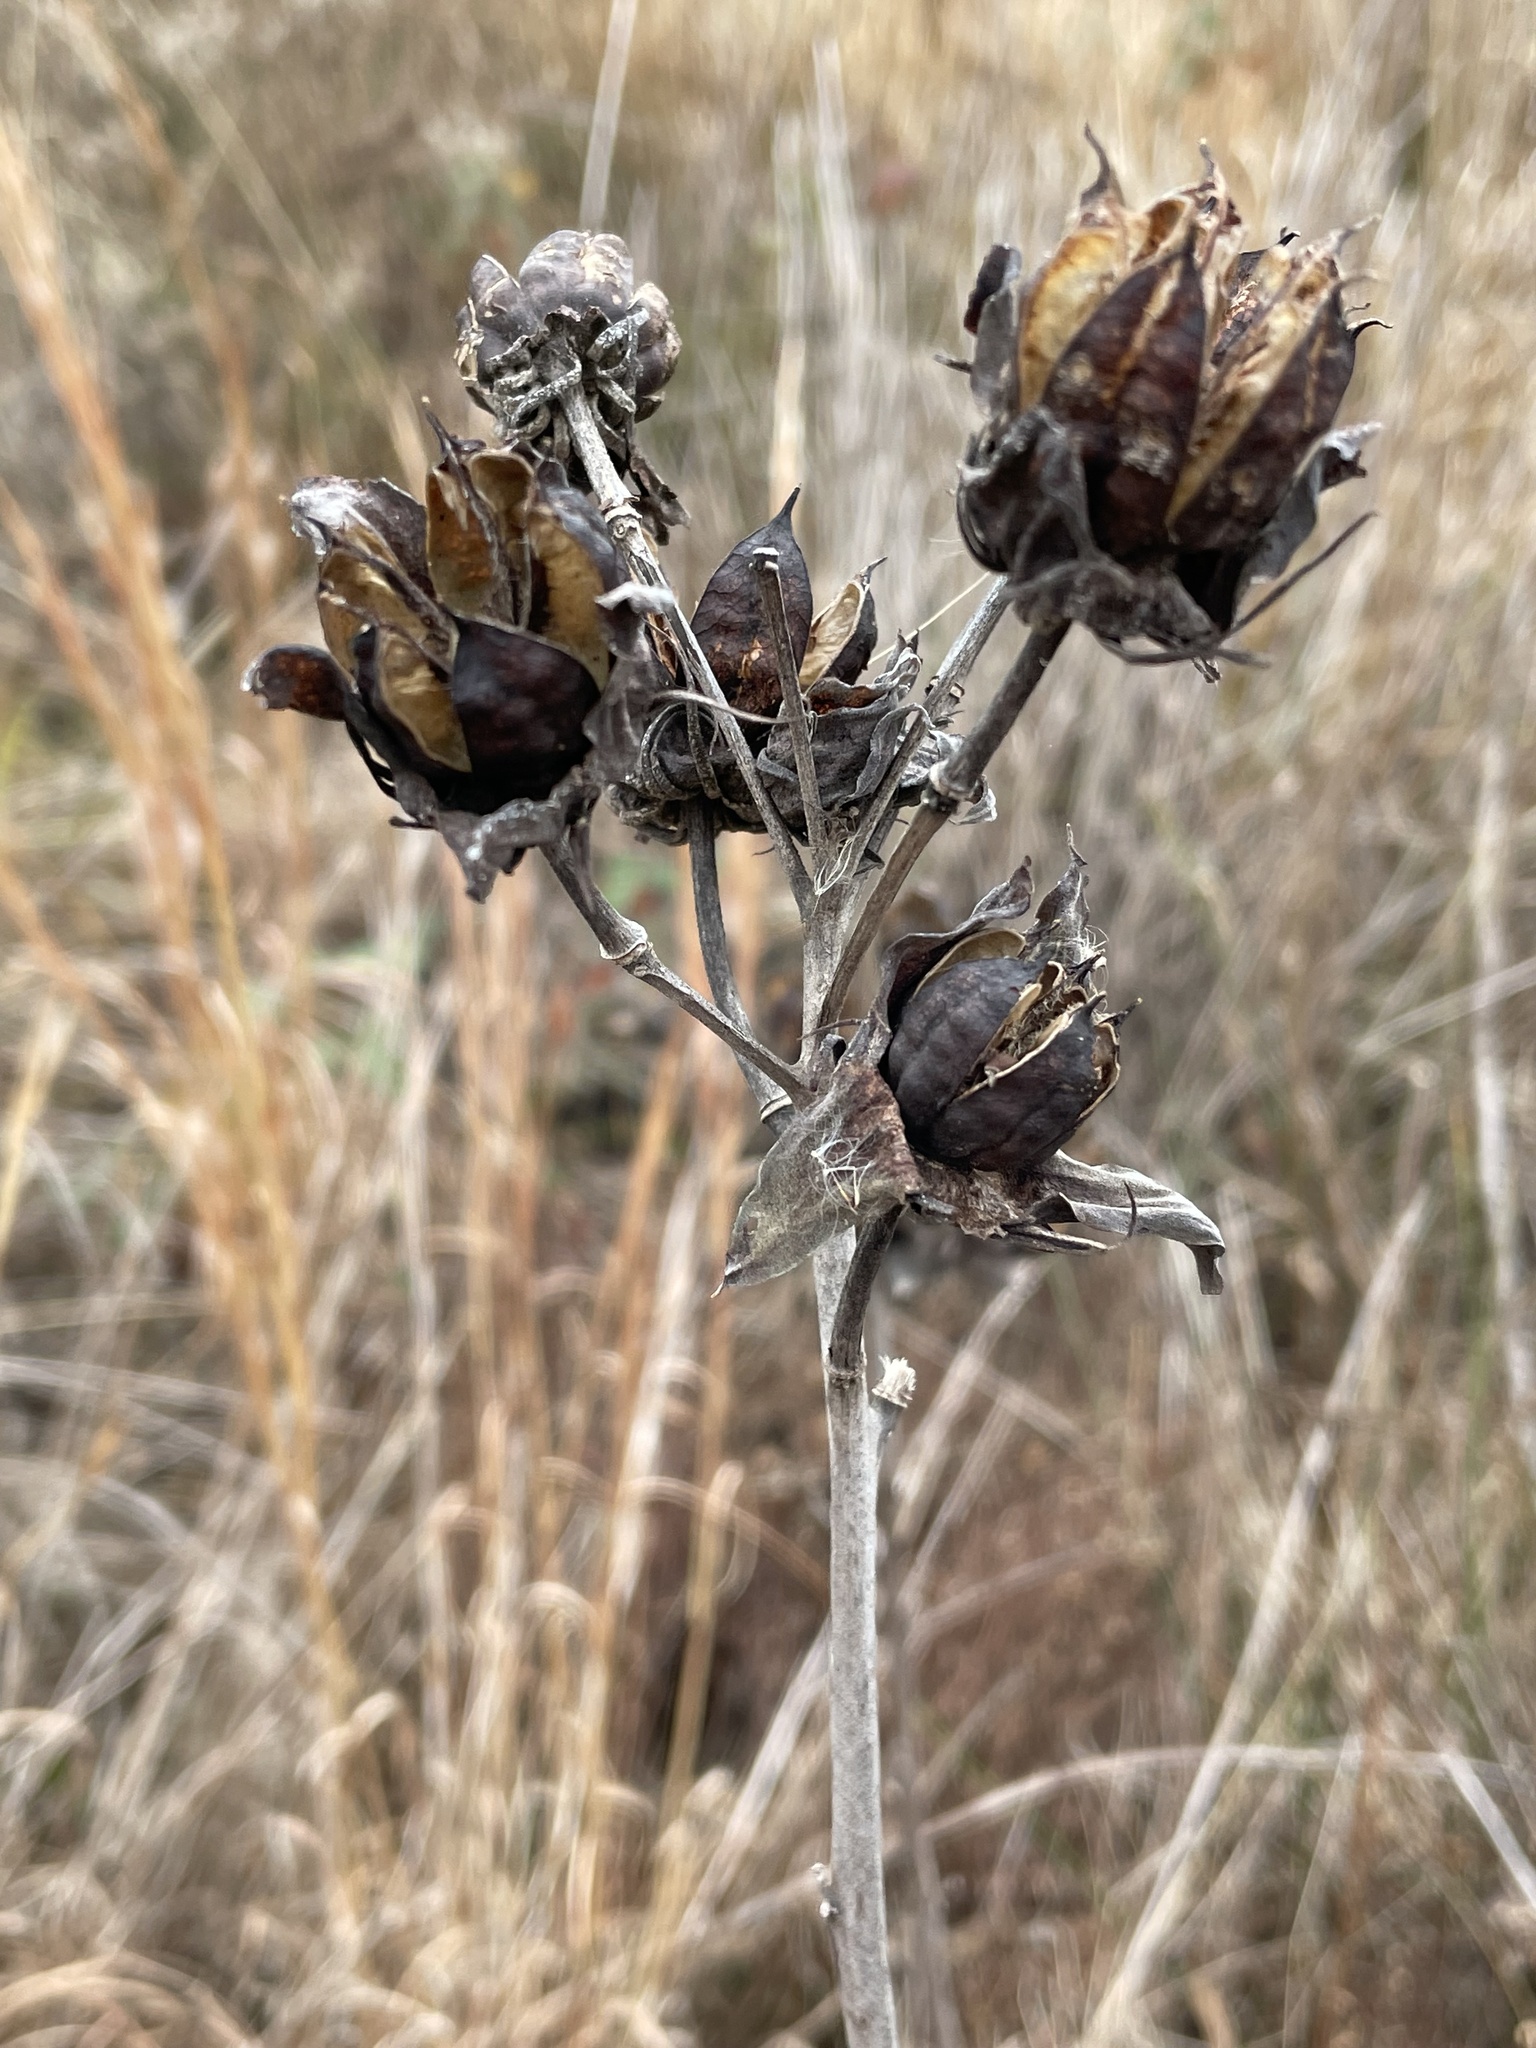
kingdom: Plantae
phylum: Tracheophyta
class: Magnoliopsida
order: Malvales
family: Malvaceae
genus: Hibiscus
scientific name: Hibiscus moscheutos
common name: Common rose-mallow
